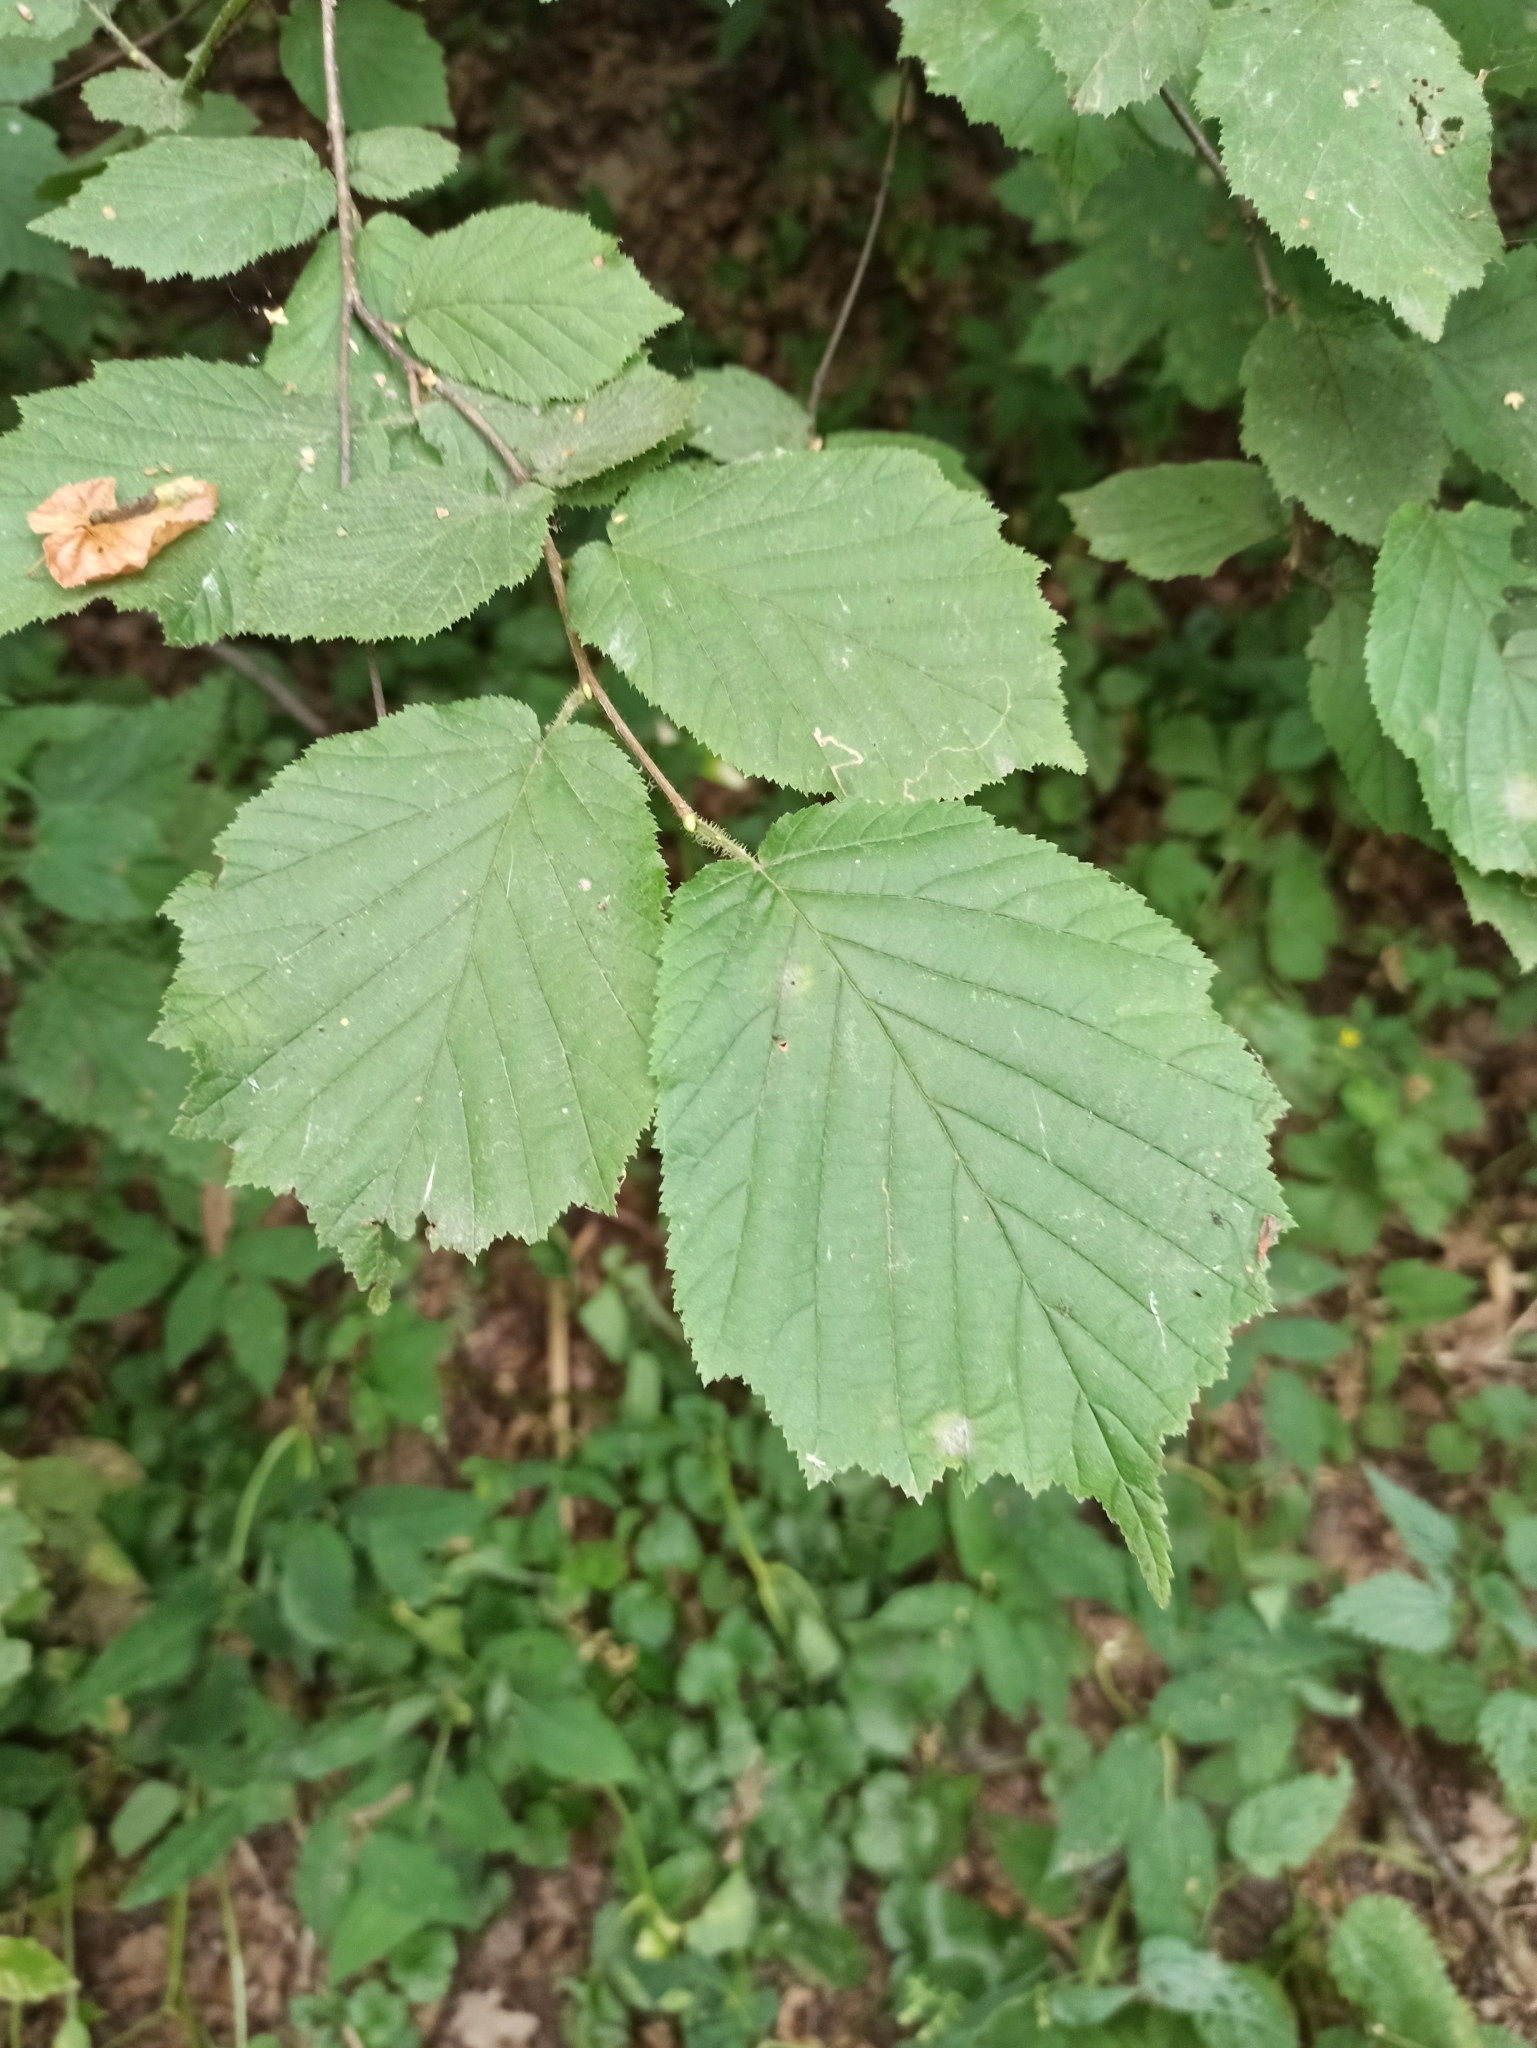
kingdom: Plantae
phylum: Tracheophyta
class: Magnoliopsida
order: Fagales
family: Betulaceae
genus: Corylus
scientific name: Corylus avellana
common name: European hazel
